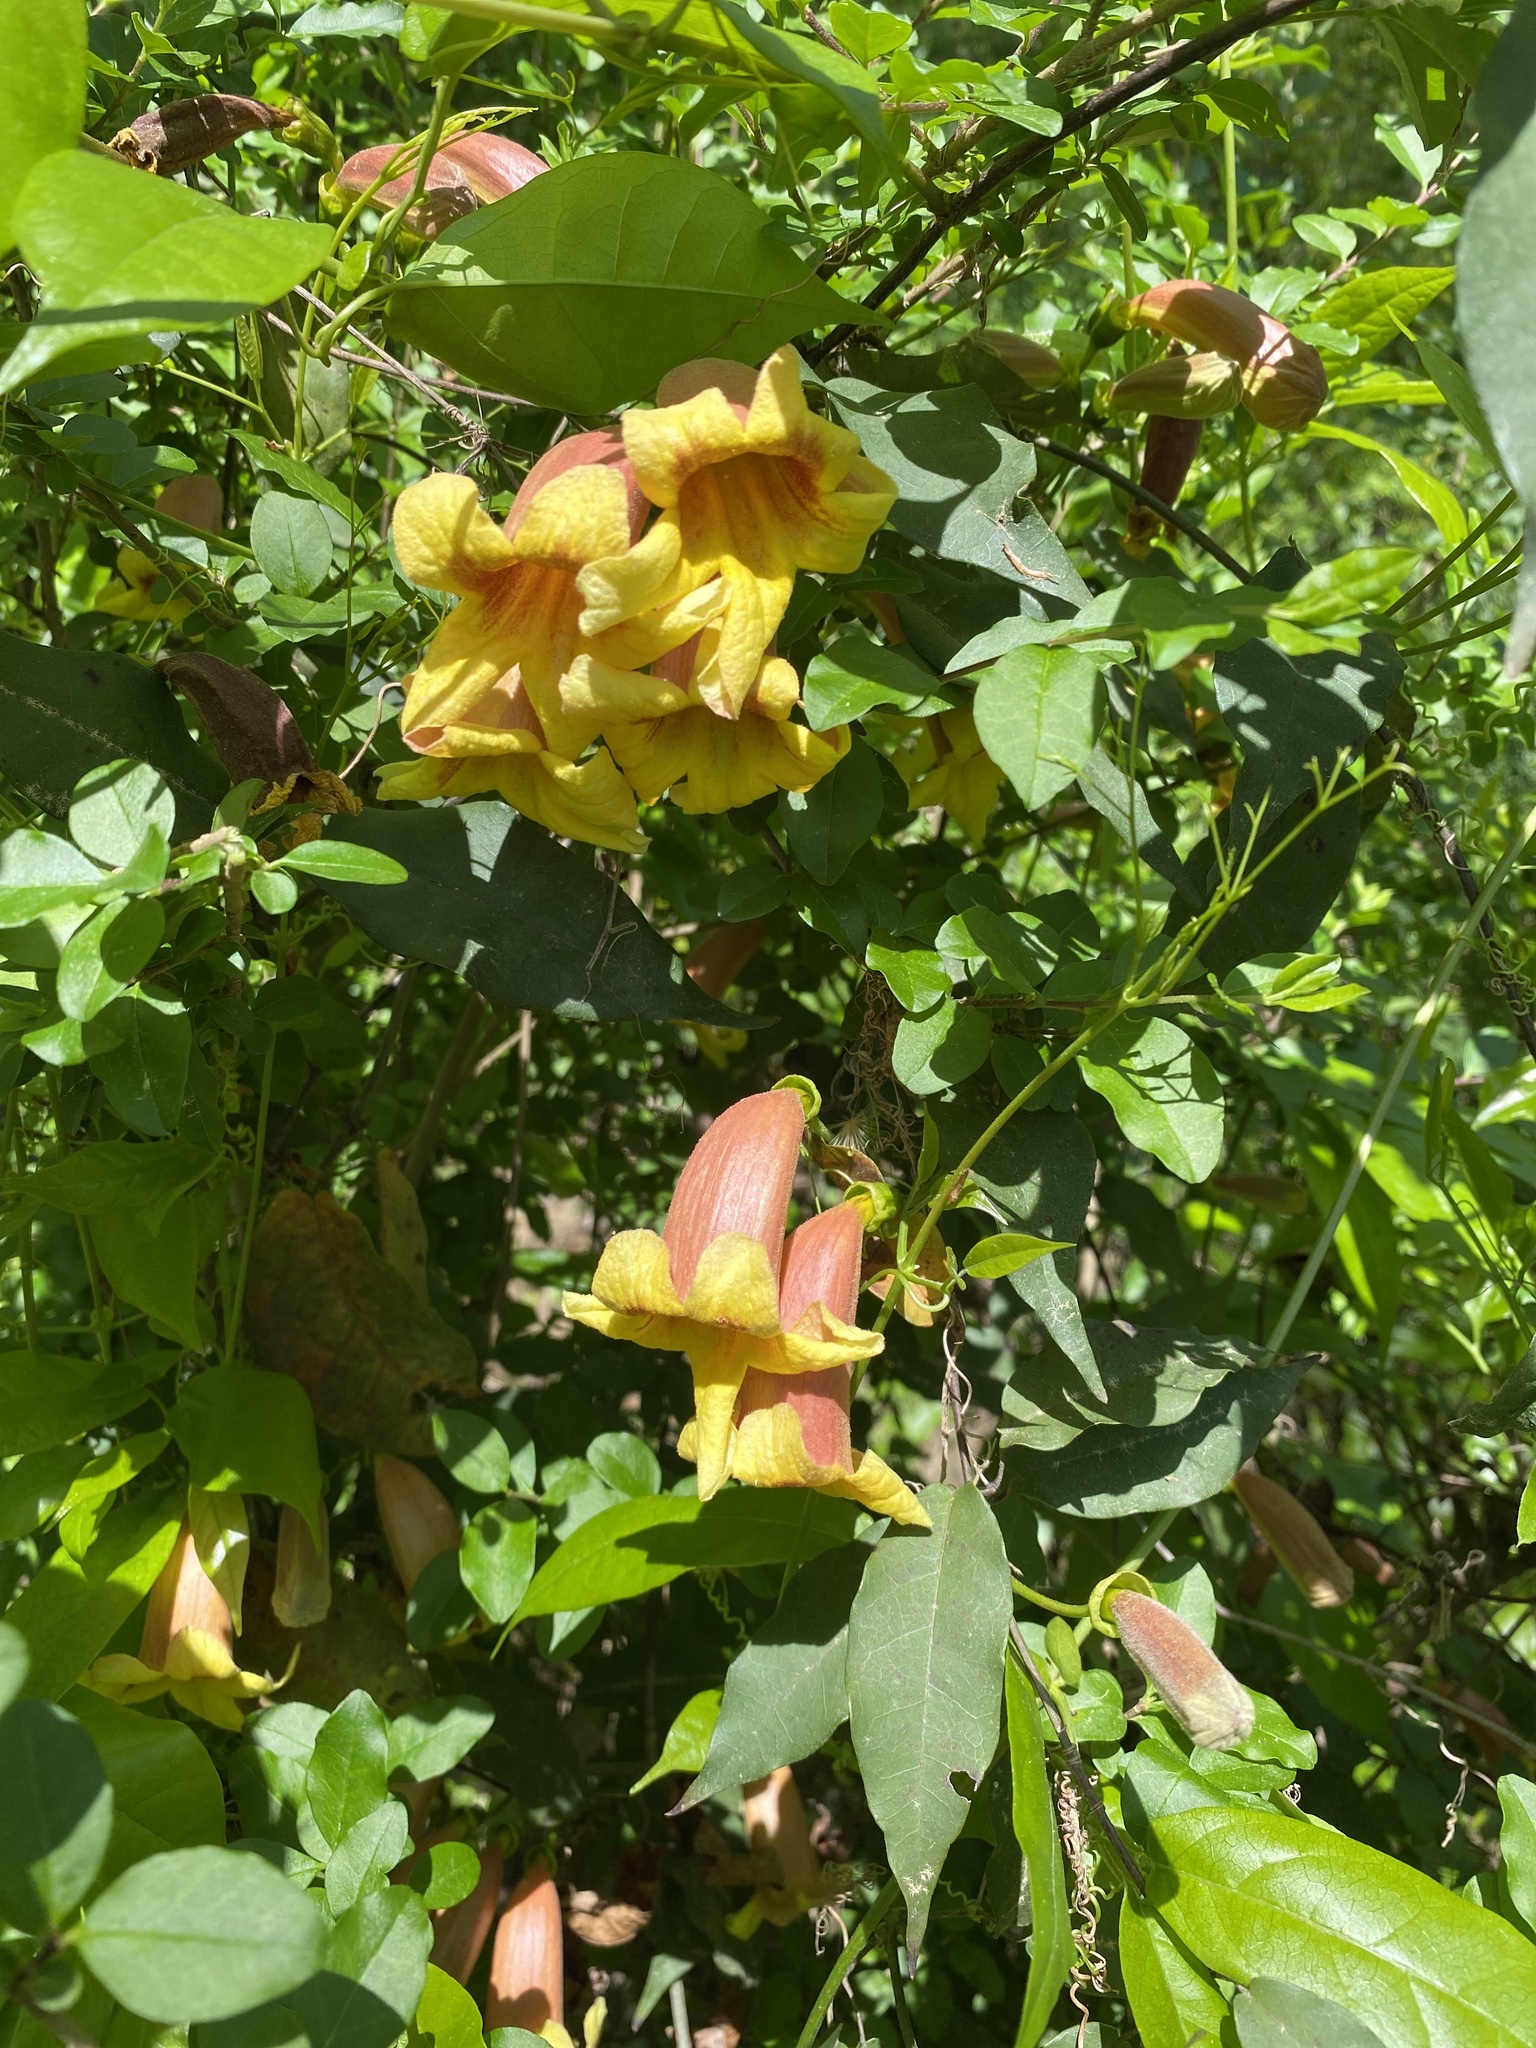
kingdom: Plantae
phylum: Tracheophyta
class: Magnoliopsida
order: Lamiales
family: Bignoniaceae
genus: Bignonia
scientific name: Bignonia capreolata
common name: Crossvine
